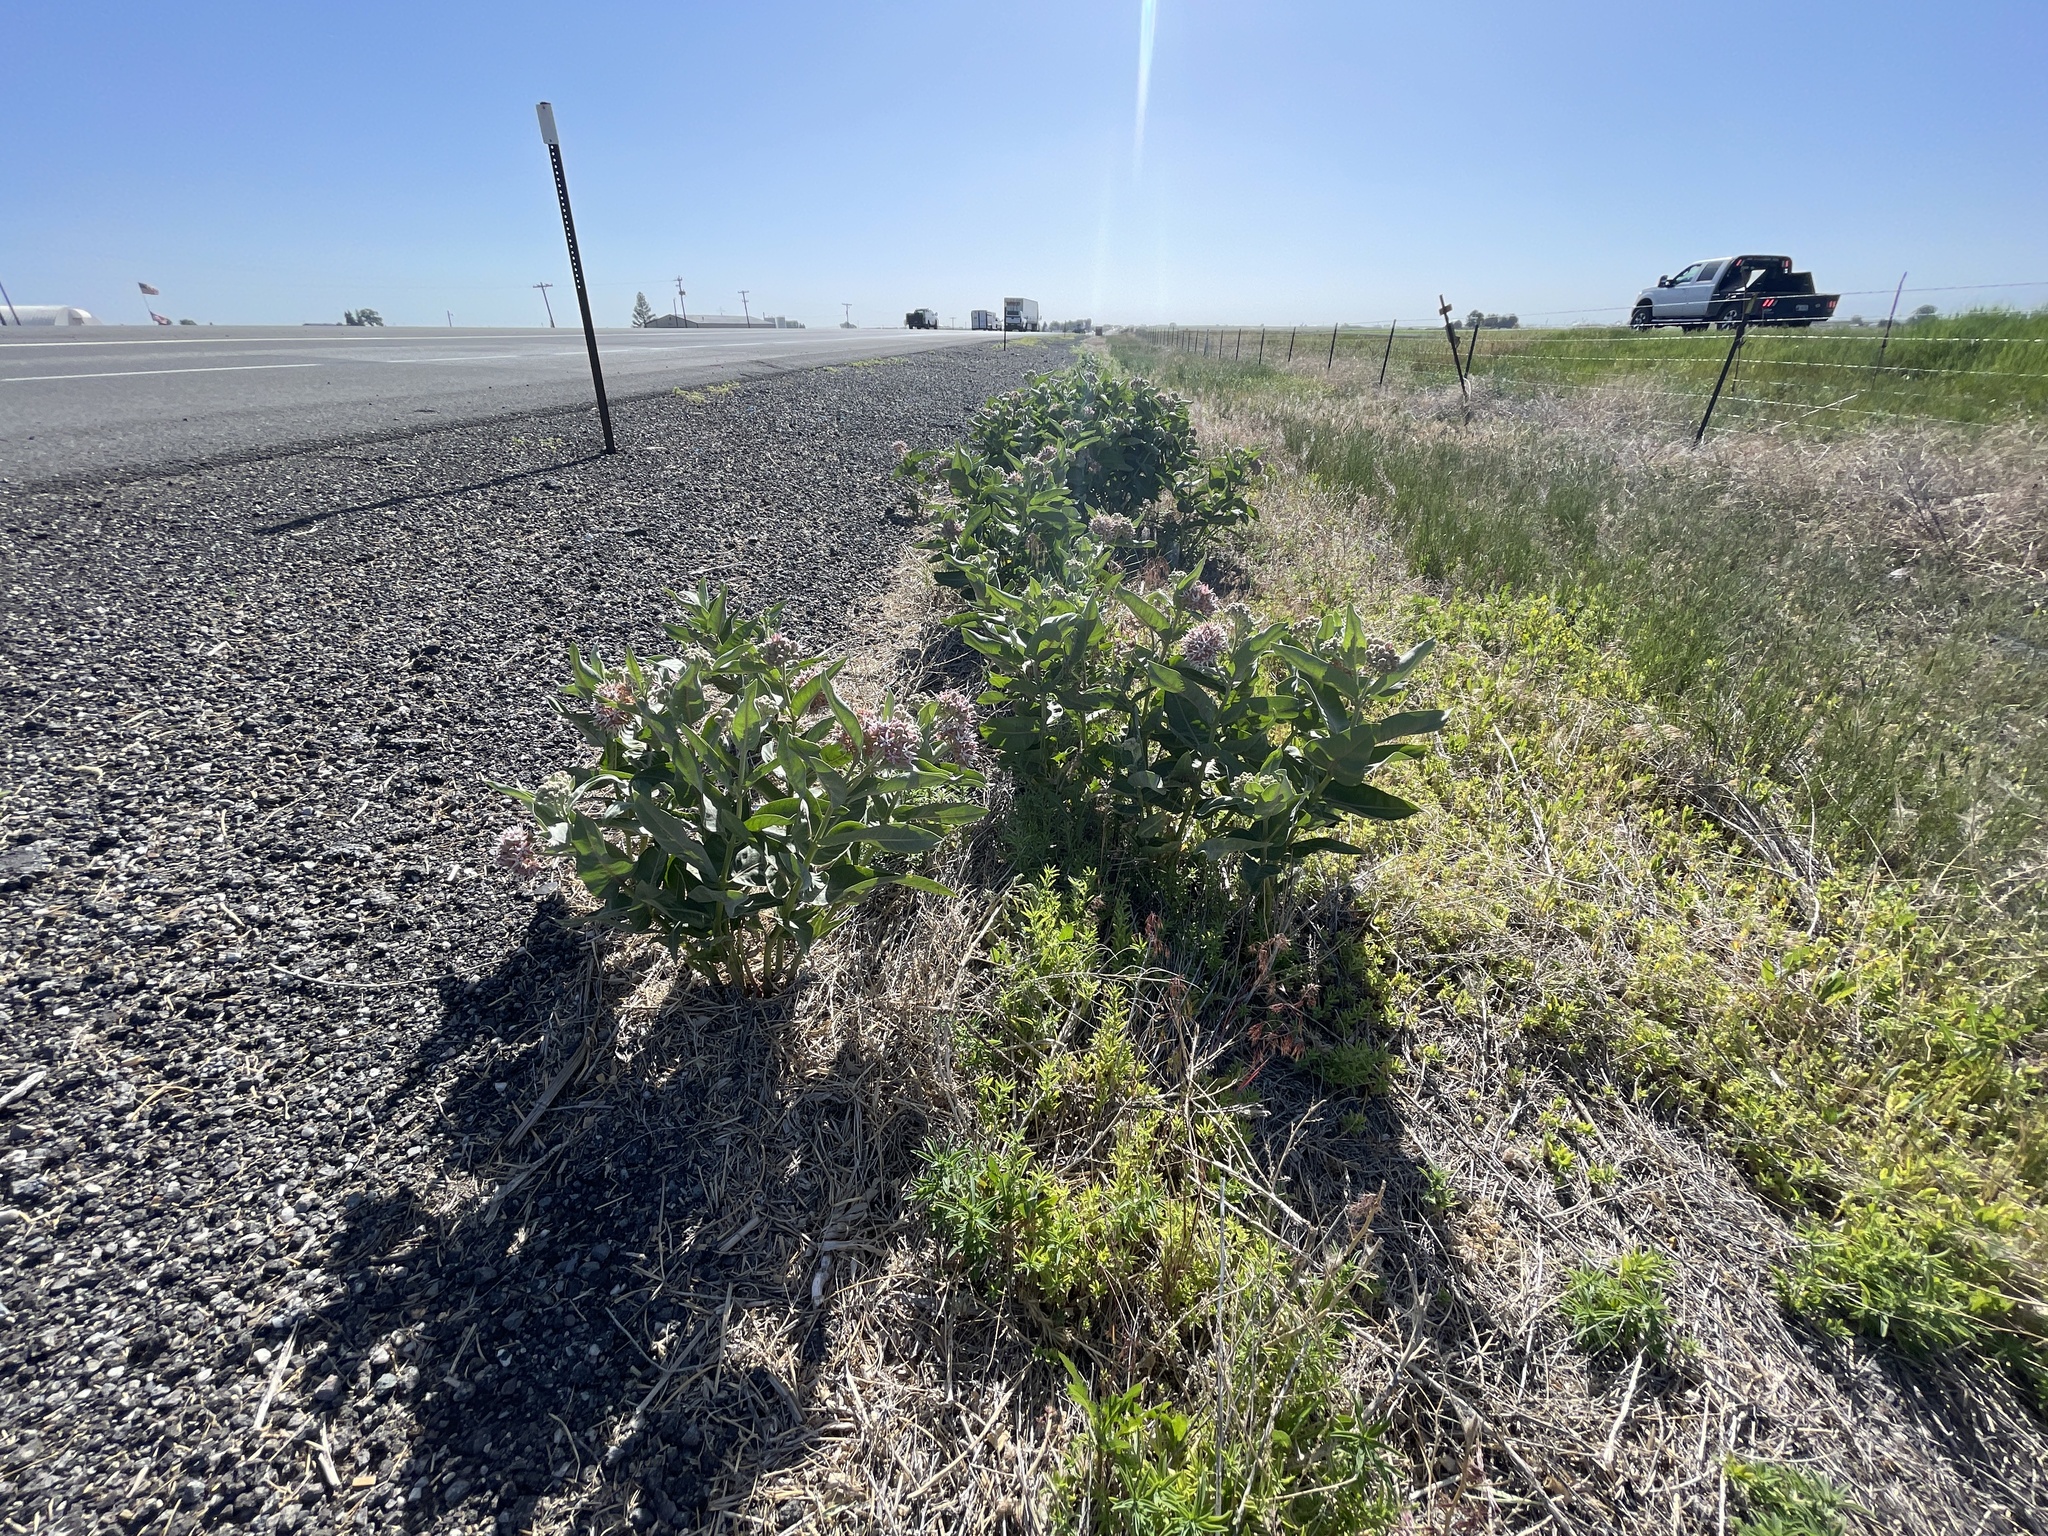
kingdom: Plantae
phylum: Tracheophyta
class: Magnoliopsida
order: Gentianales
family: Apocynaceae
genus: Asclepias
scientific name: Asclepias speciosa
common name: Showy milkweed
